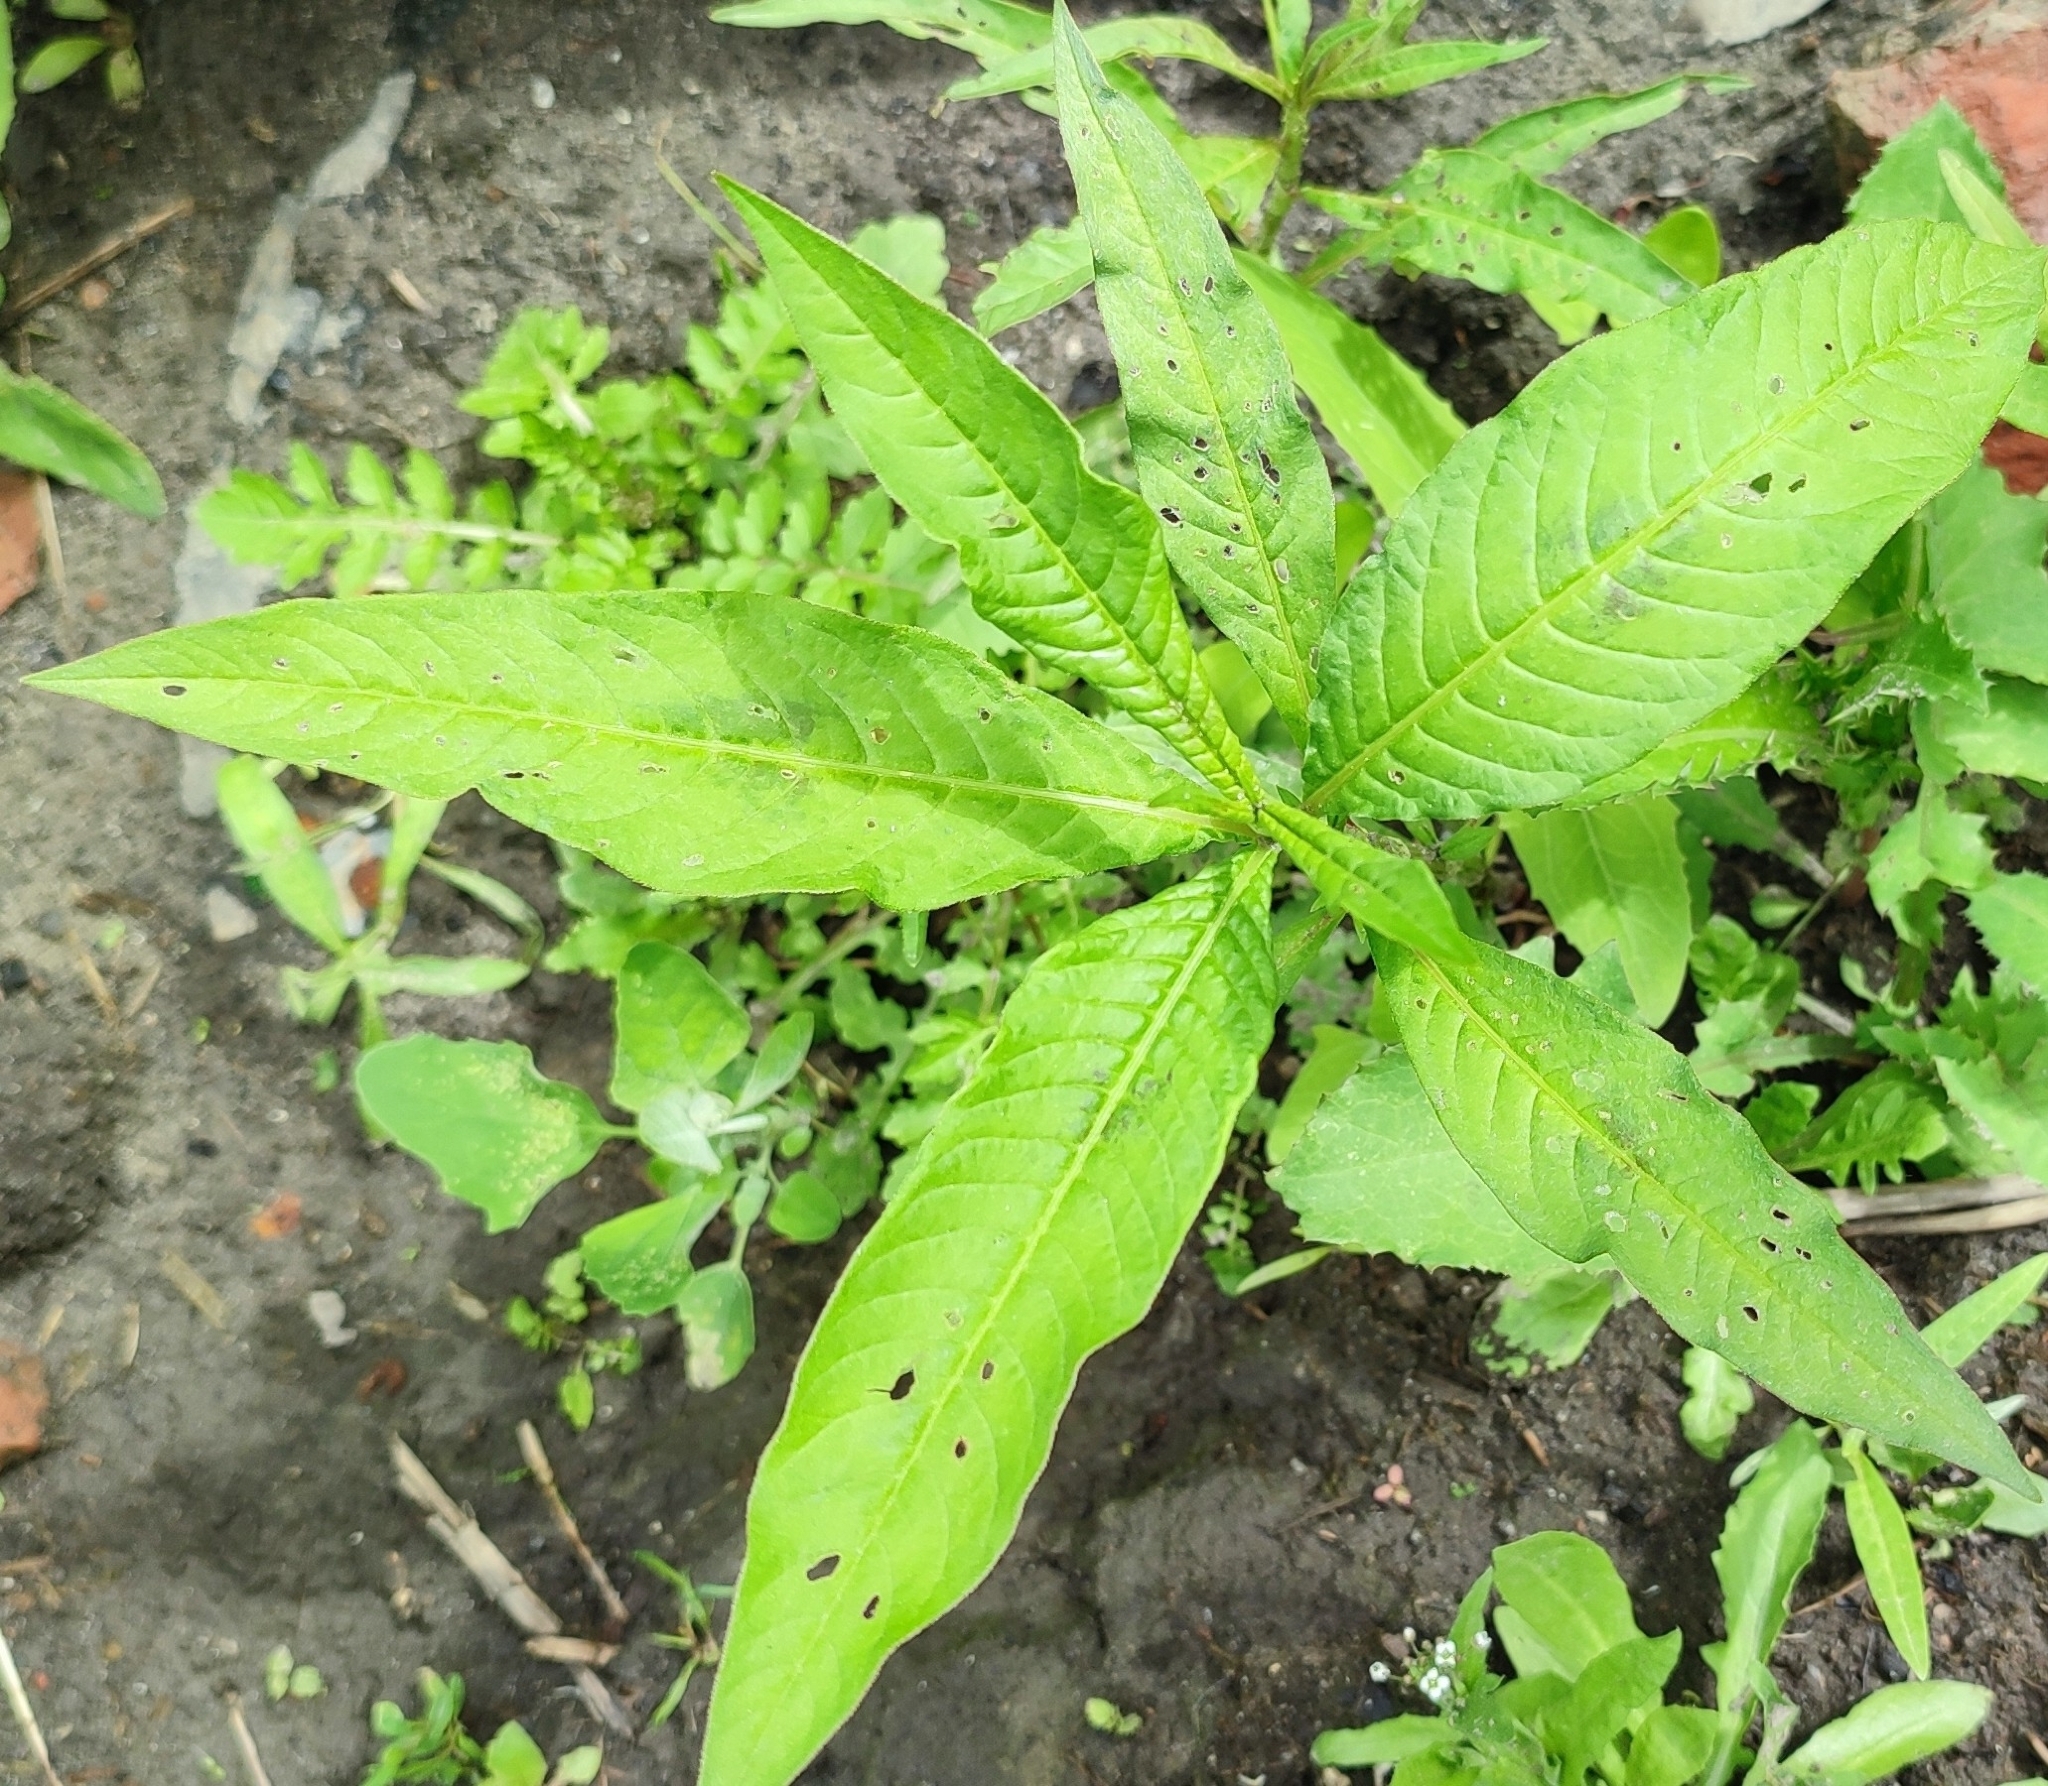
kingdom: Plantae
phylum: Tracheophyta
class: Magnoliopsida
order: Caryophyllales
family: Polygonaceae
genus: Persicaria
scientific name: Persicaria lapathifolia
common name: Curlytop knotweed
